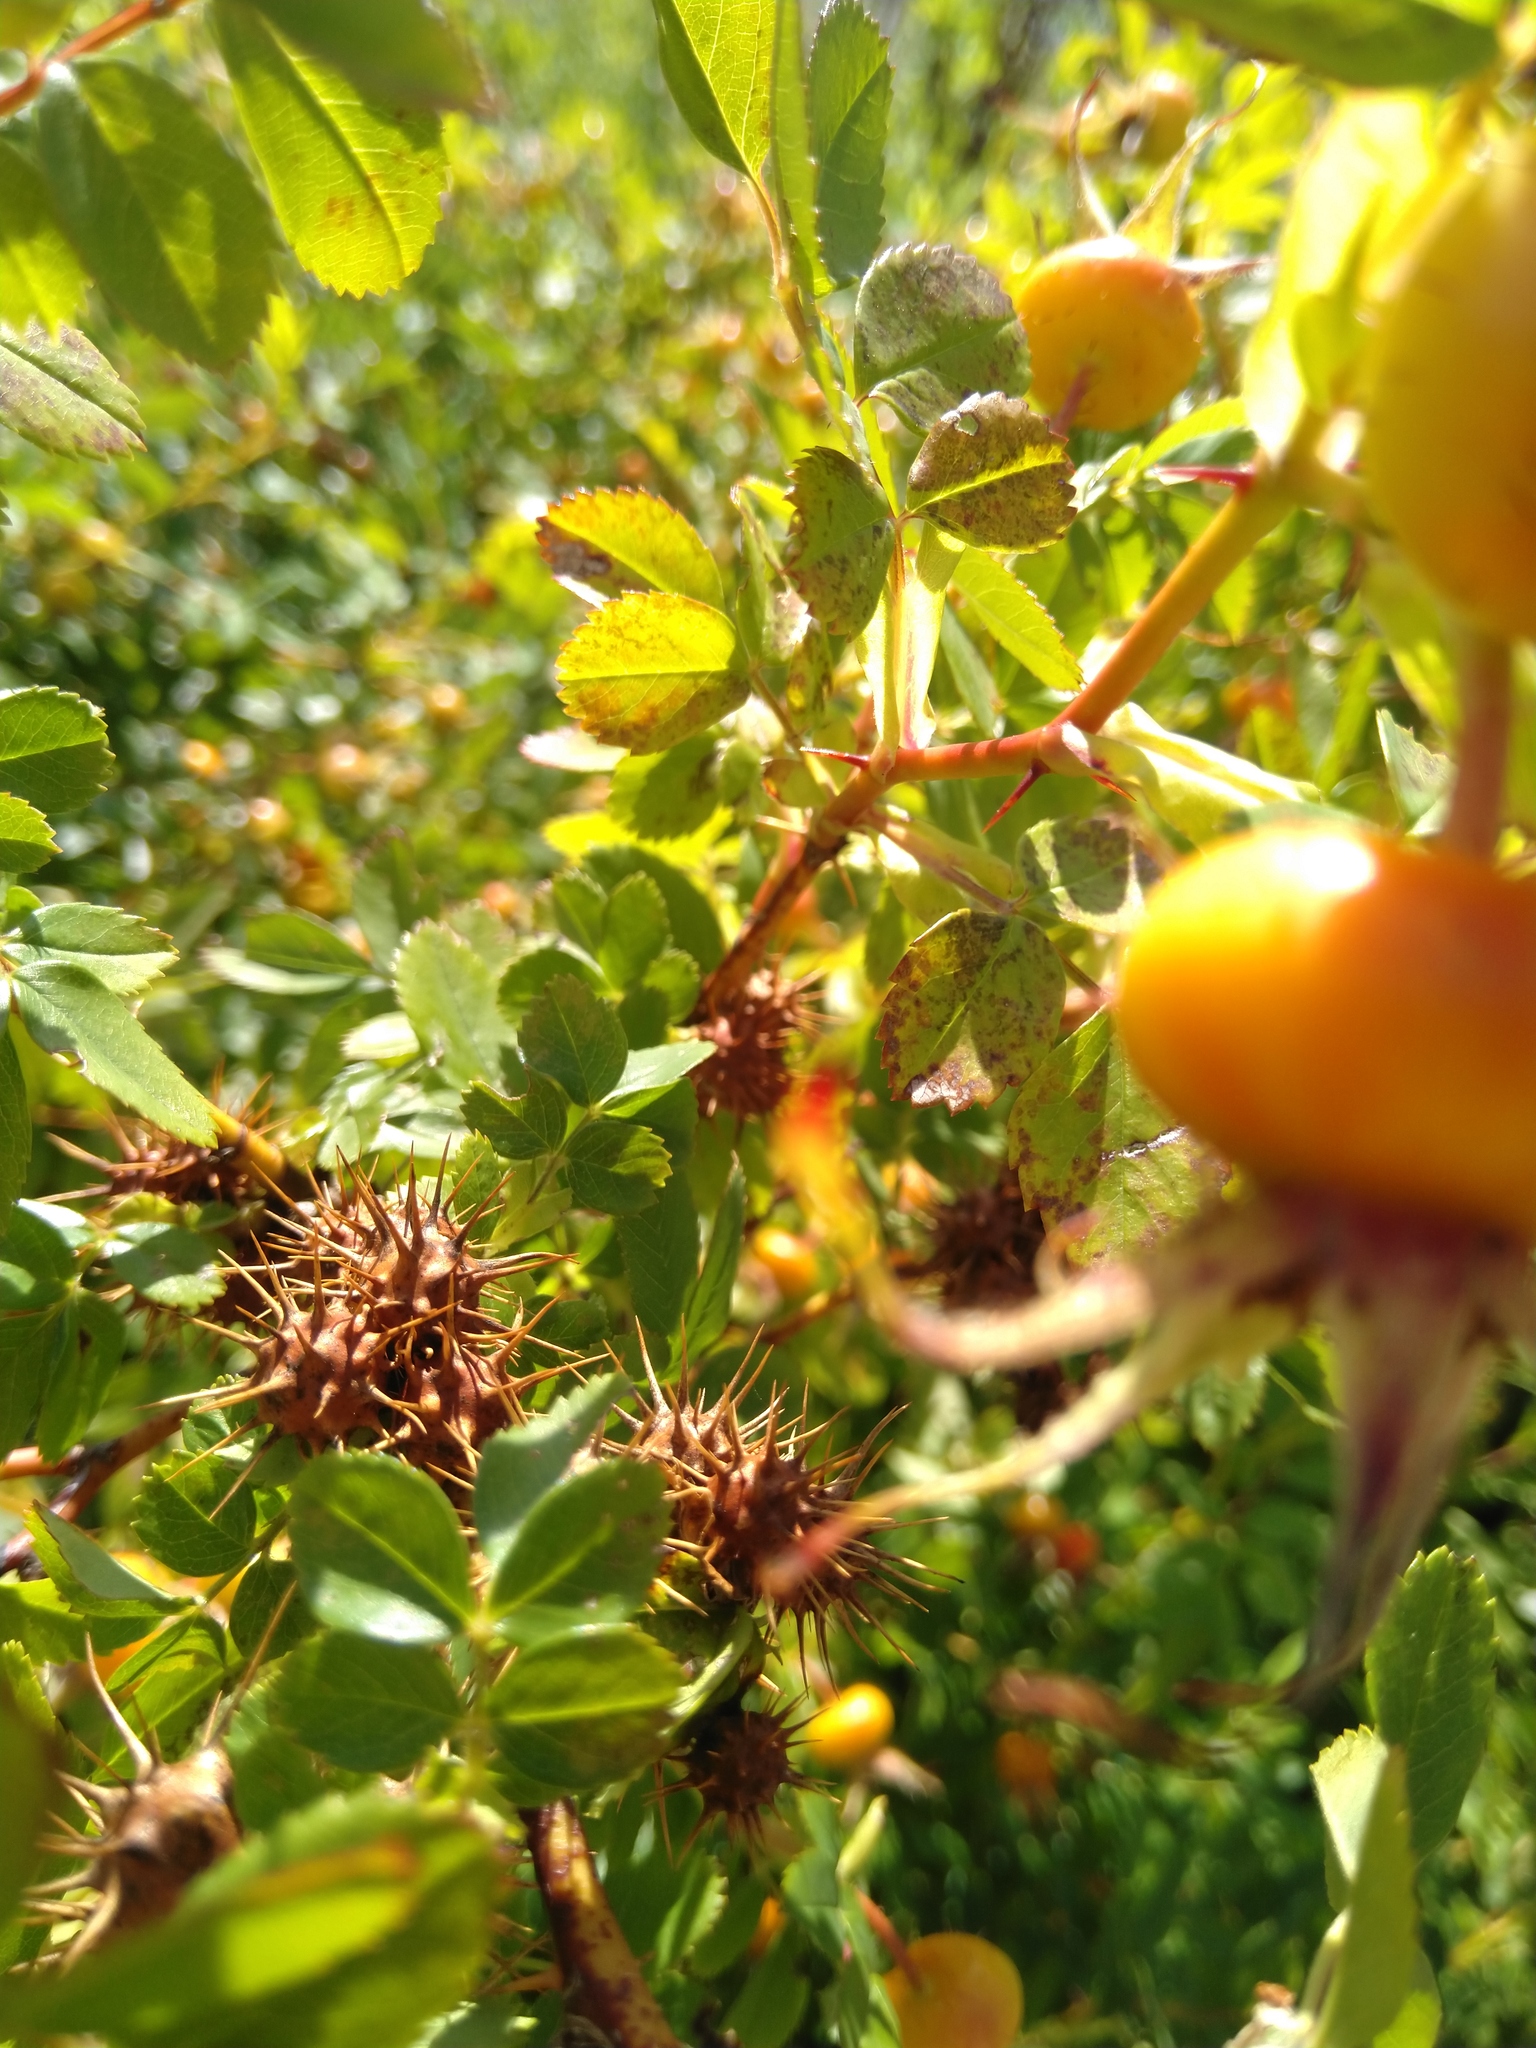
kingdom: Animalia
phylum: Arthropoda
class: Insecta
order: Hymenoptera
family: Cynipidae
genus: Diplolepis
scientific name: Diplolepis bicolor
